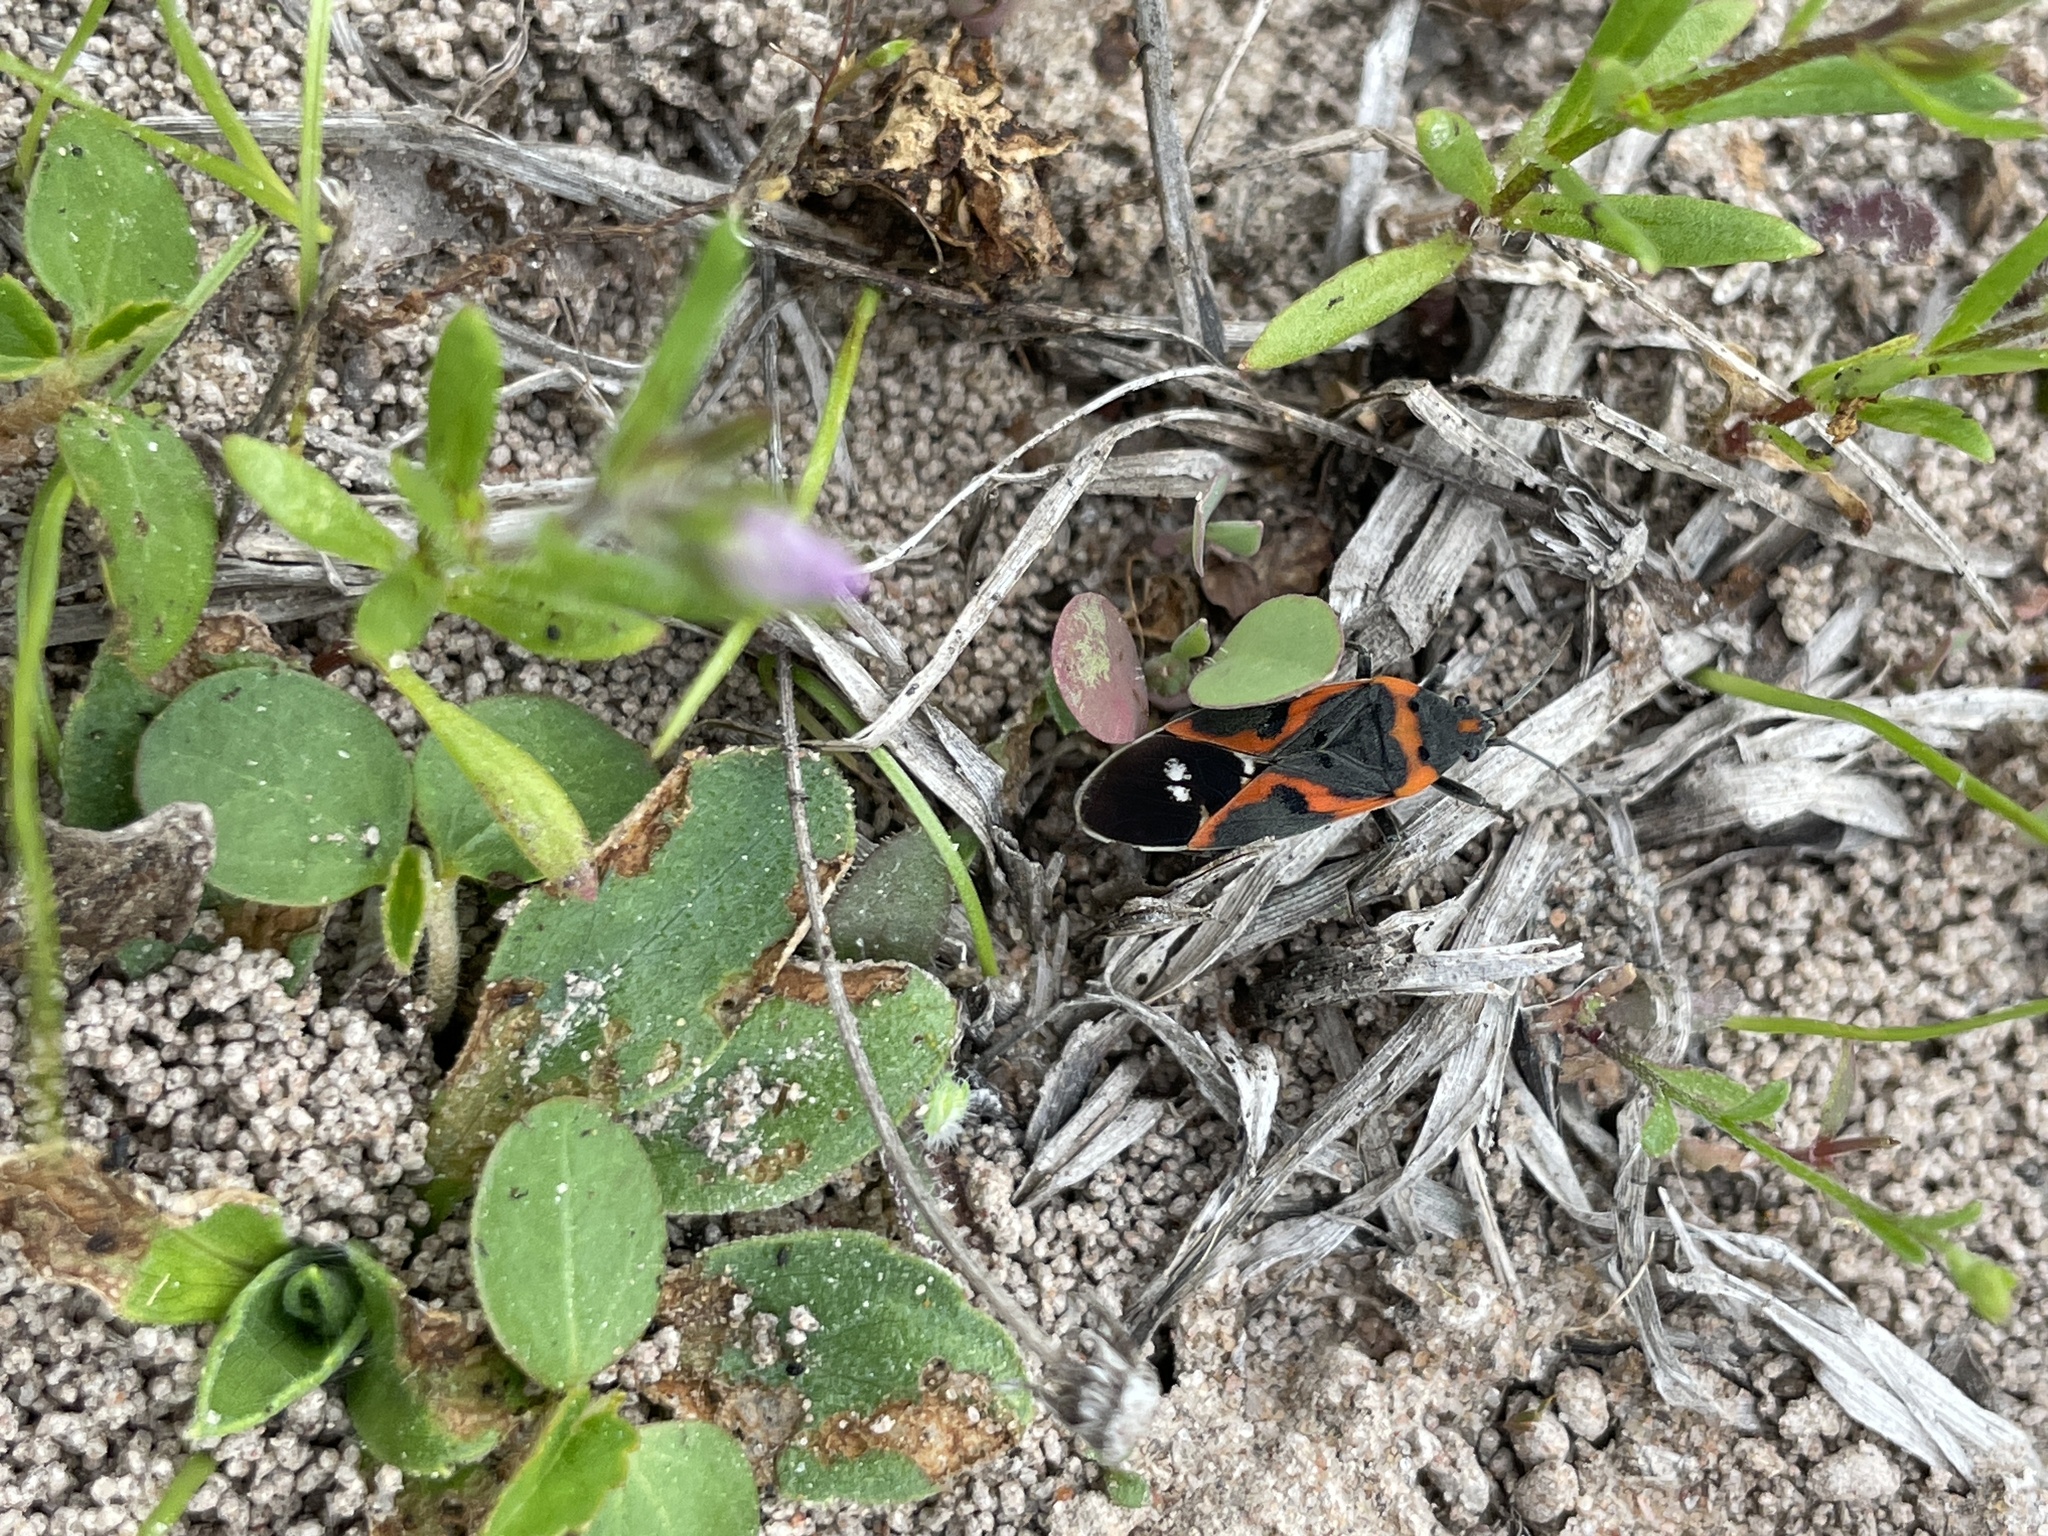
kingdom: Animalia
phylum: Arthropoda
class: Insecta
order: Hemiptera
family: Lygaeidae
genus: Lygaeus
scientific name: Lygaeus kalmii
